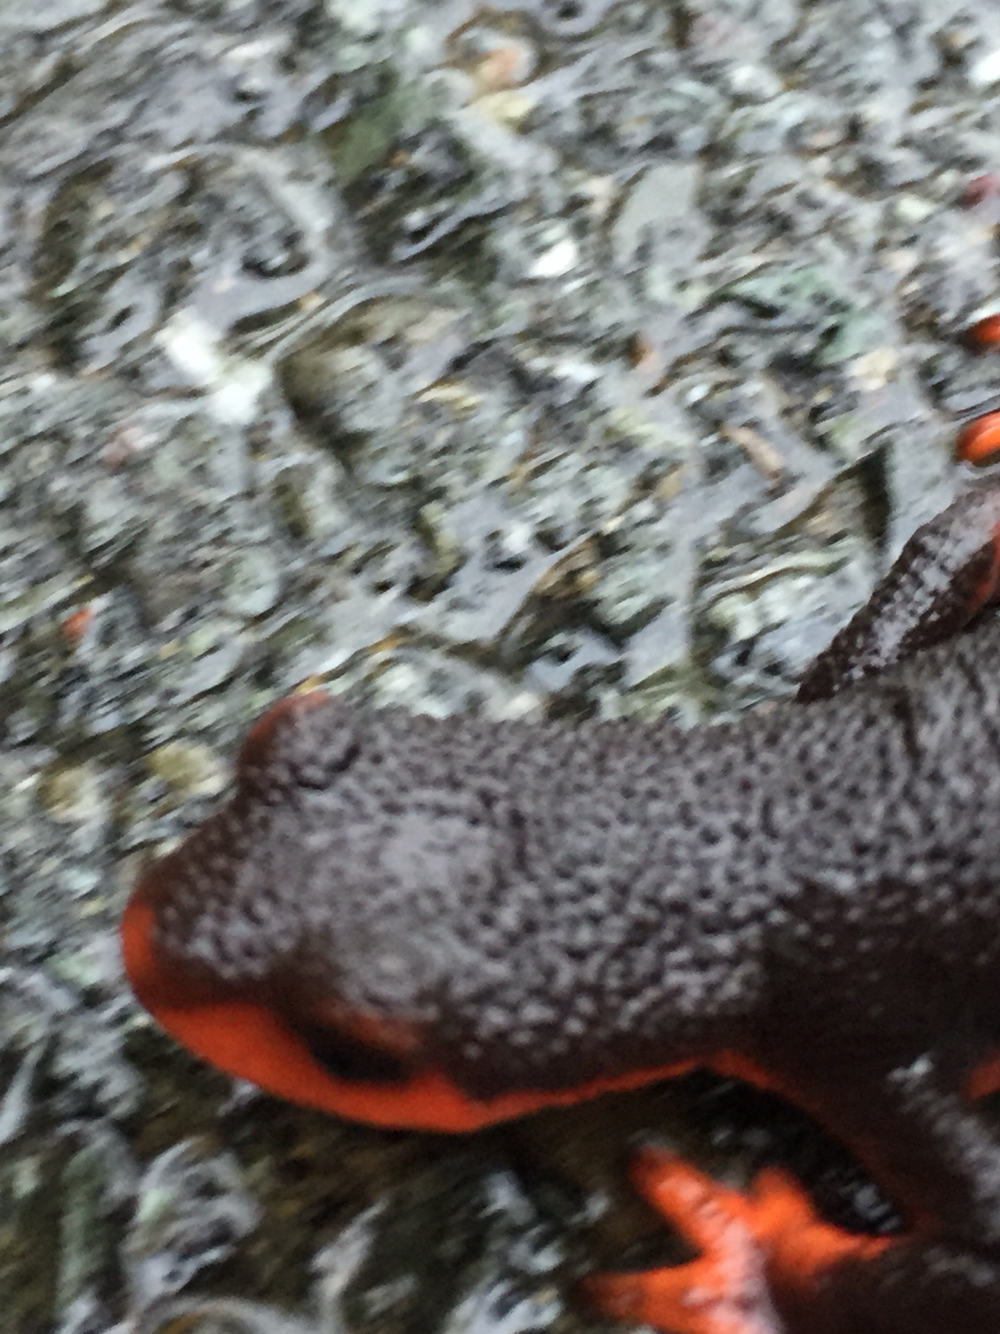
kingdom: Animalia
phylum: Chordata
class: Amphibia
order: Caudata
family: Salamandridae
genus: Taricha
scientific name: Taricha rivularis
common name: Red-bellied newt
